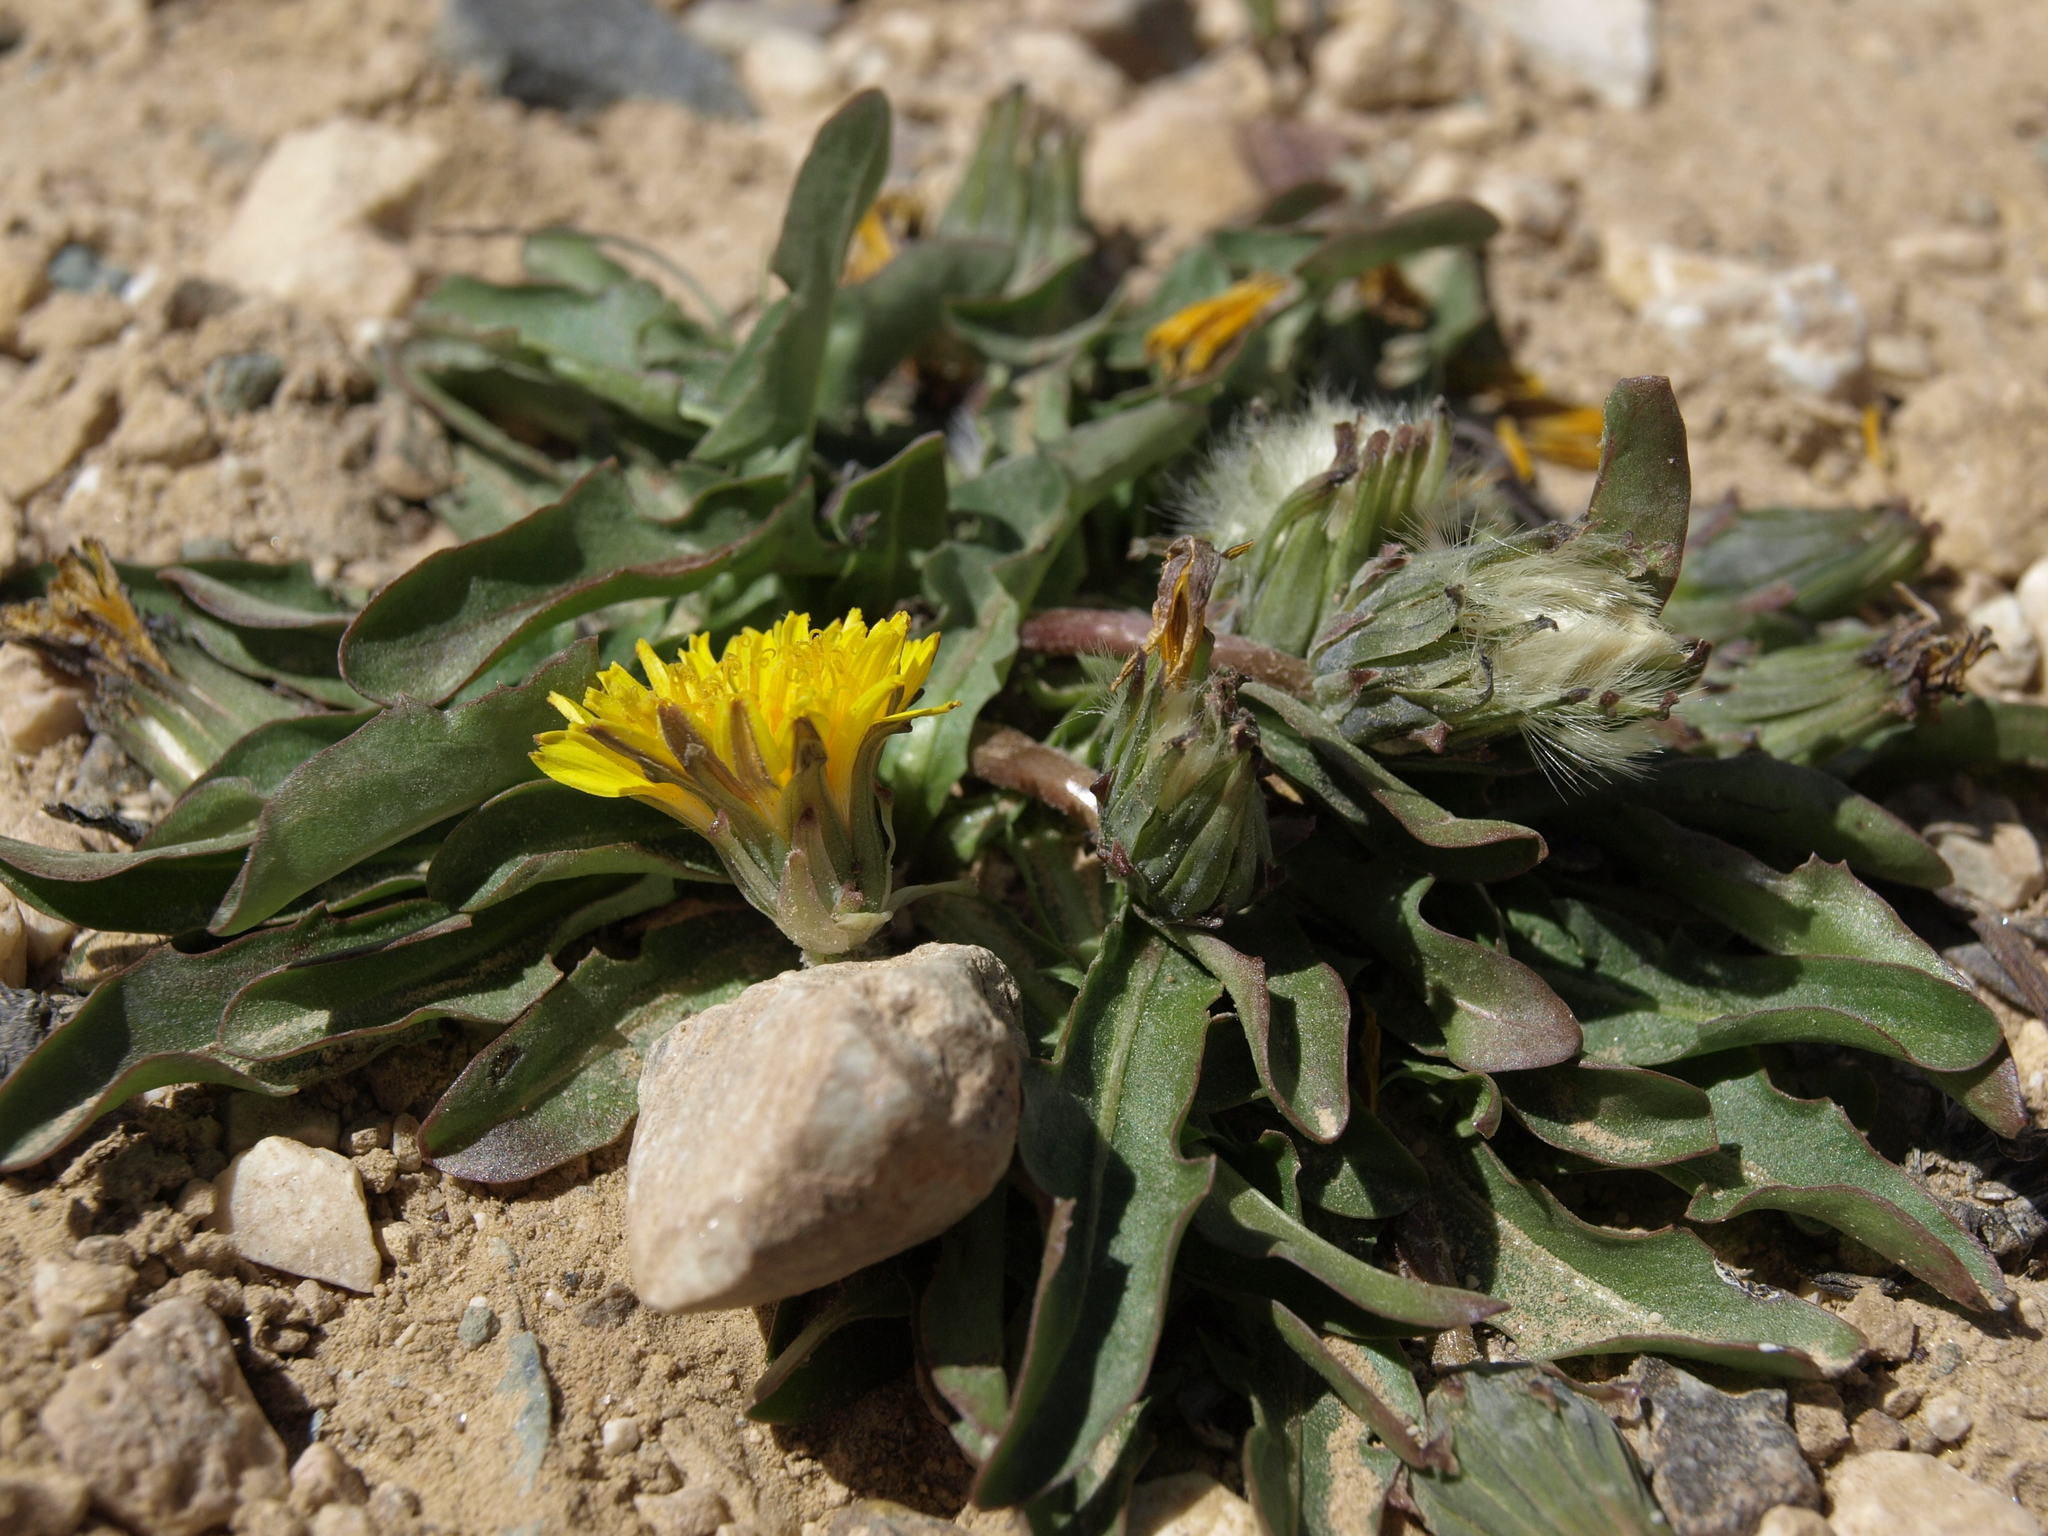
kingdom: Plantae
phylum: Tracheophyta
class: Magnoliopsida
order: Asterales
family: Asteraceae
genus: Taraxacum
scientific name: Taraxacum ceratophorum
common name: Horn-bearing dandelion
